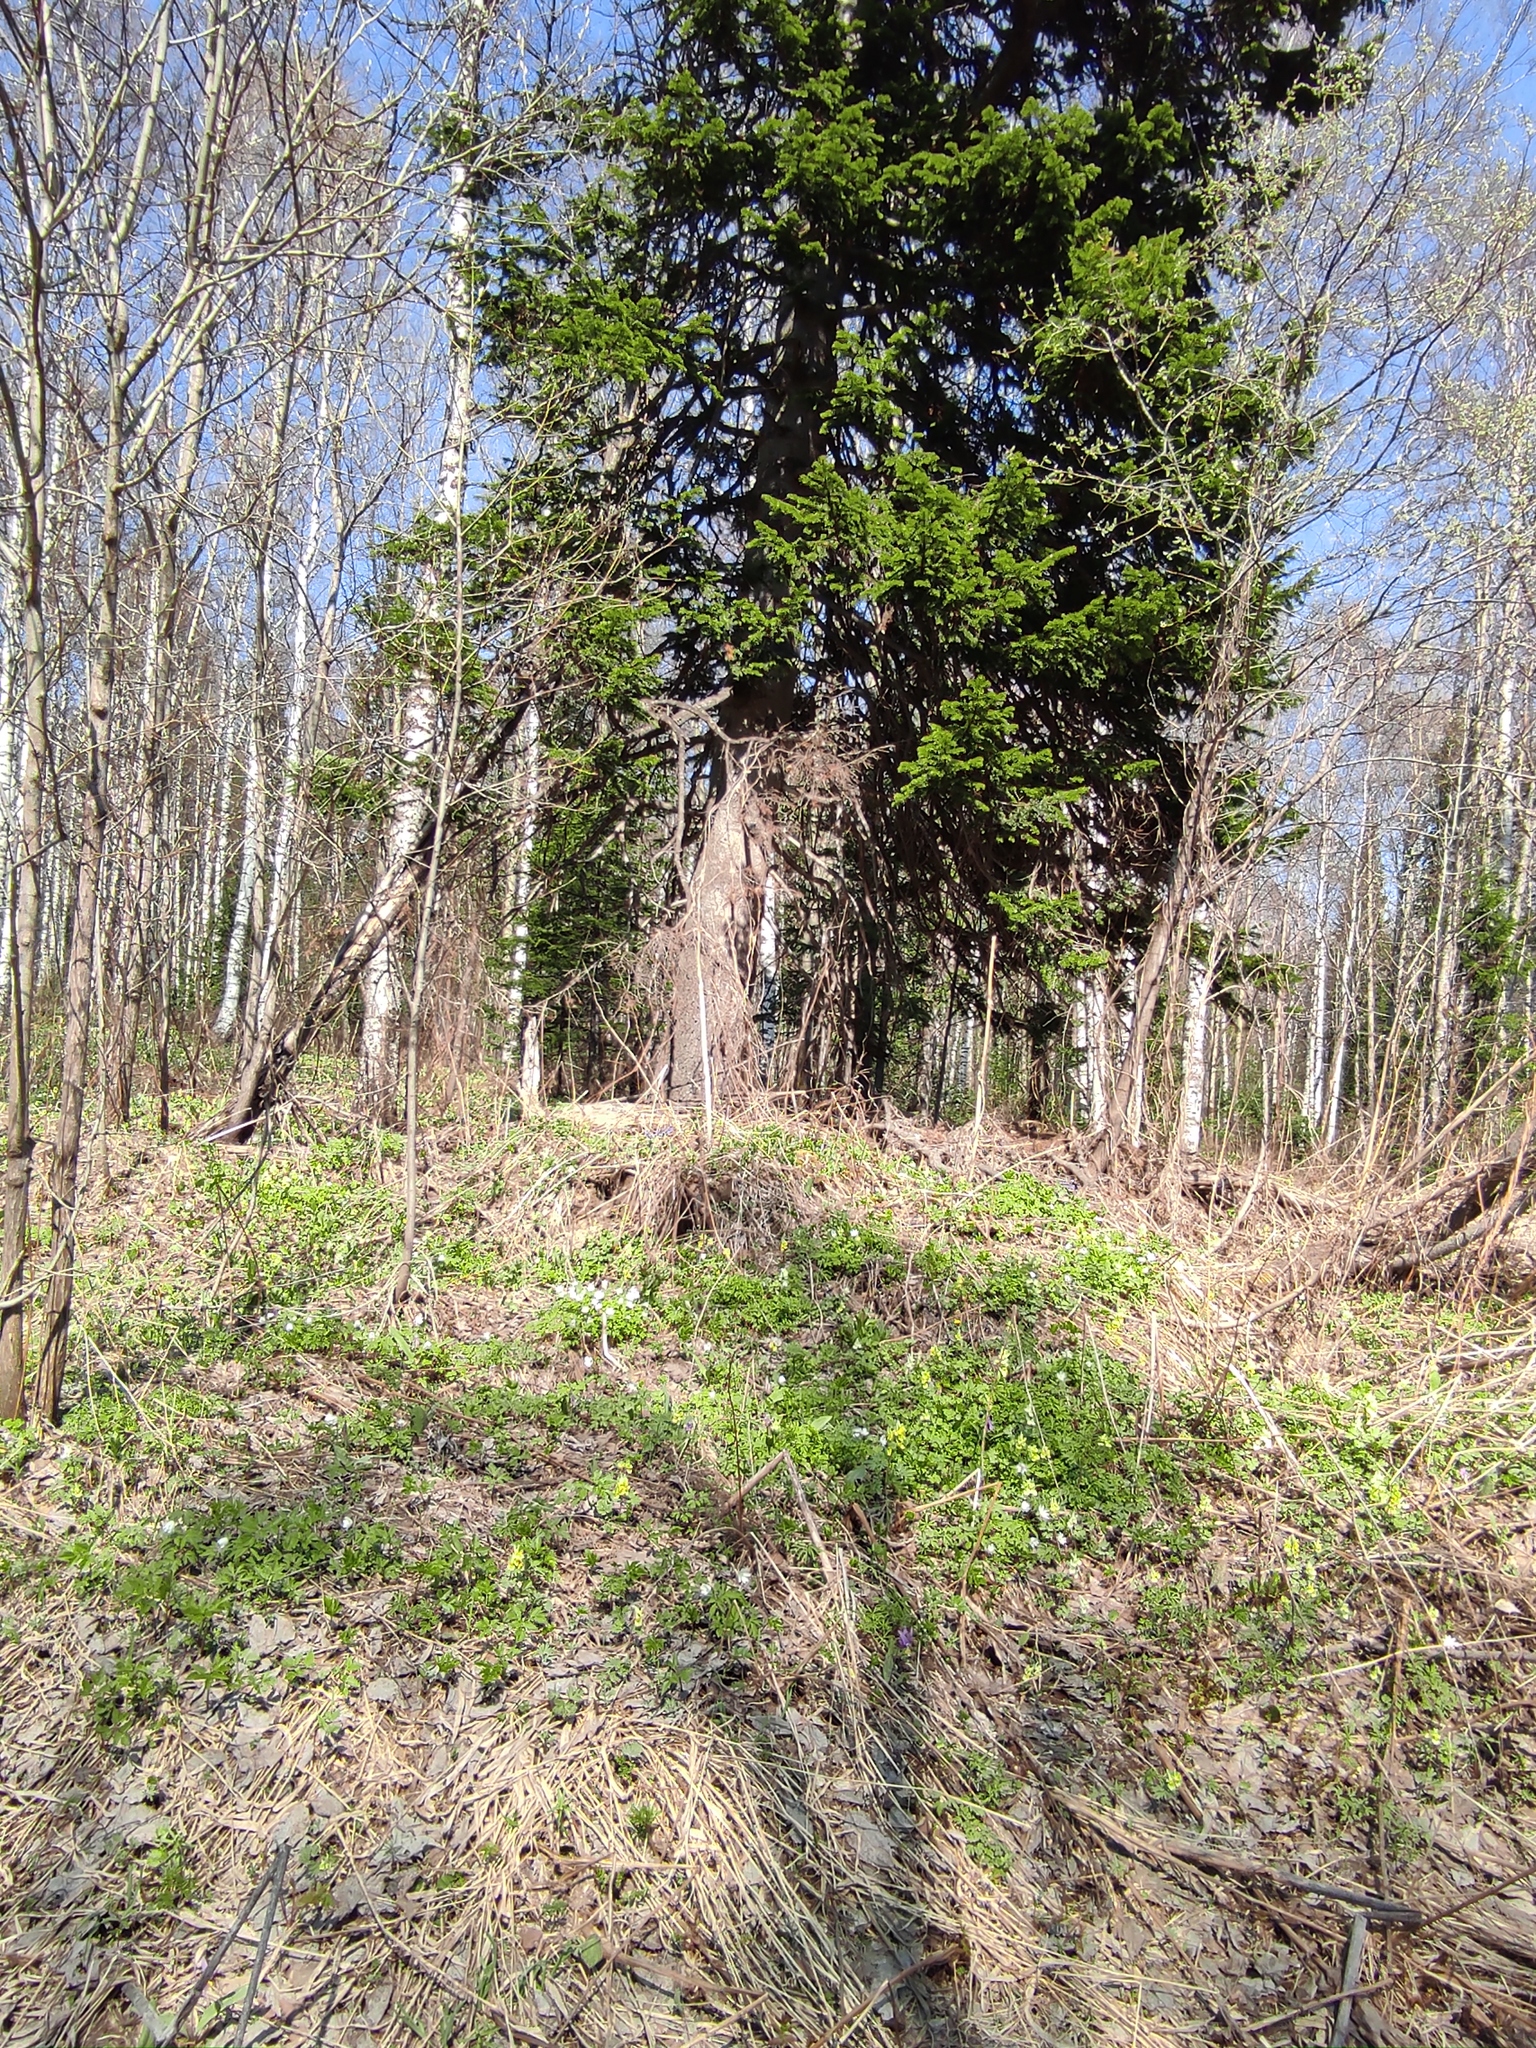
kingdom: Plantae
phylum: Tracheophyta
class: Pinopsida
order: Pinales
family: Pinaceae
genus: Abies
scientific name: Abies sibirica
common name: Siberian fir
